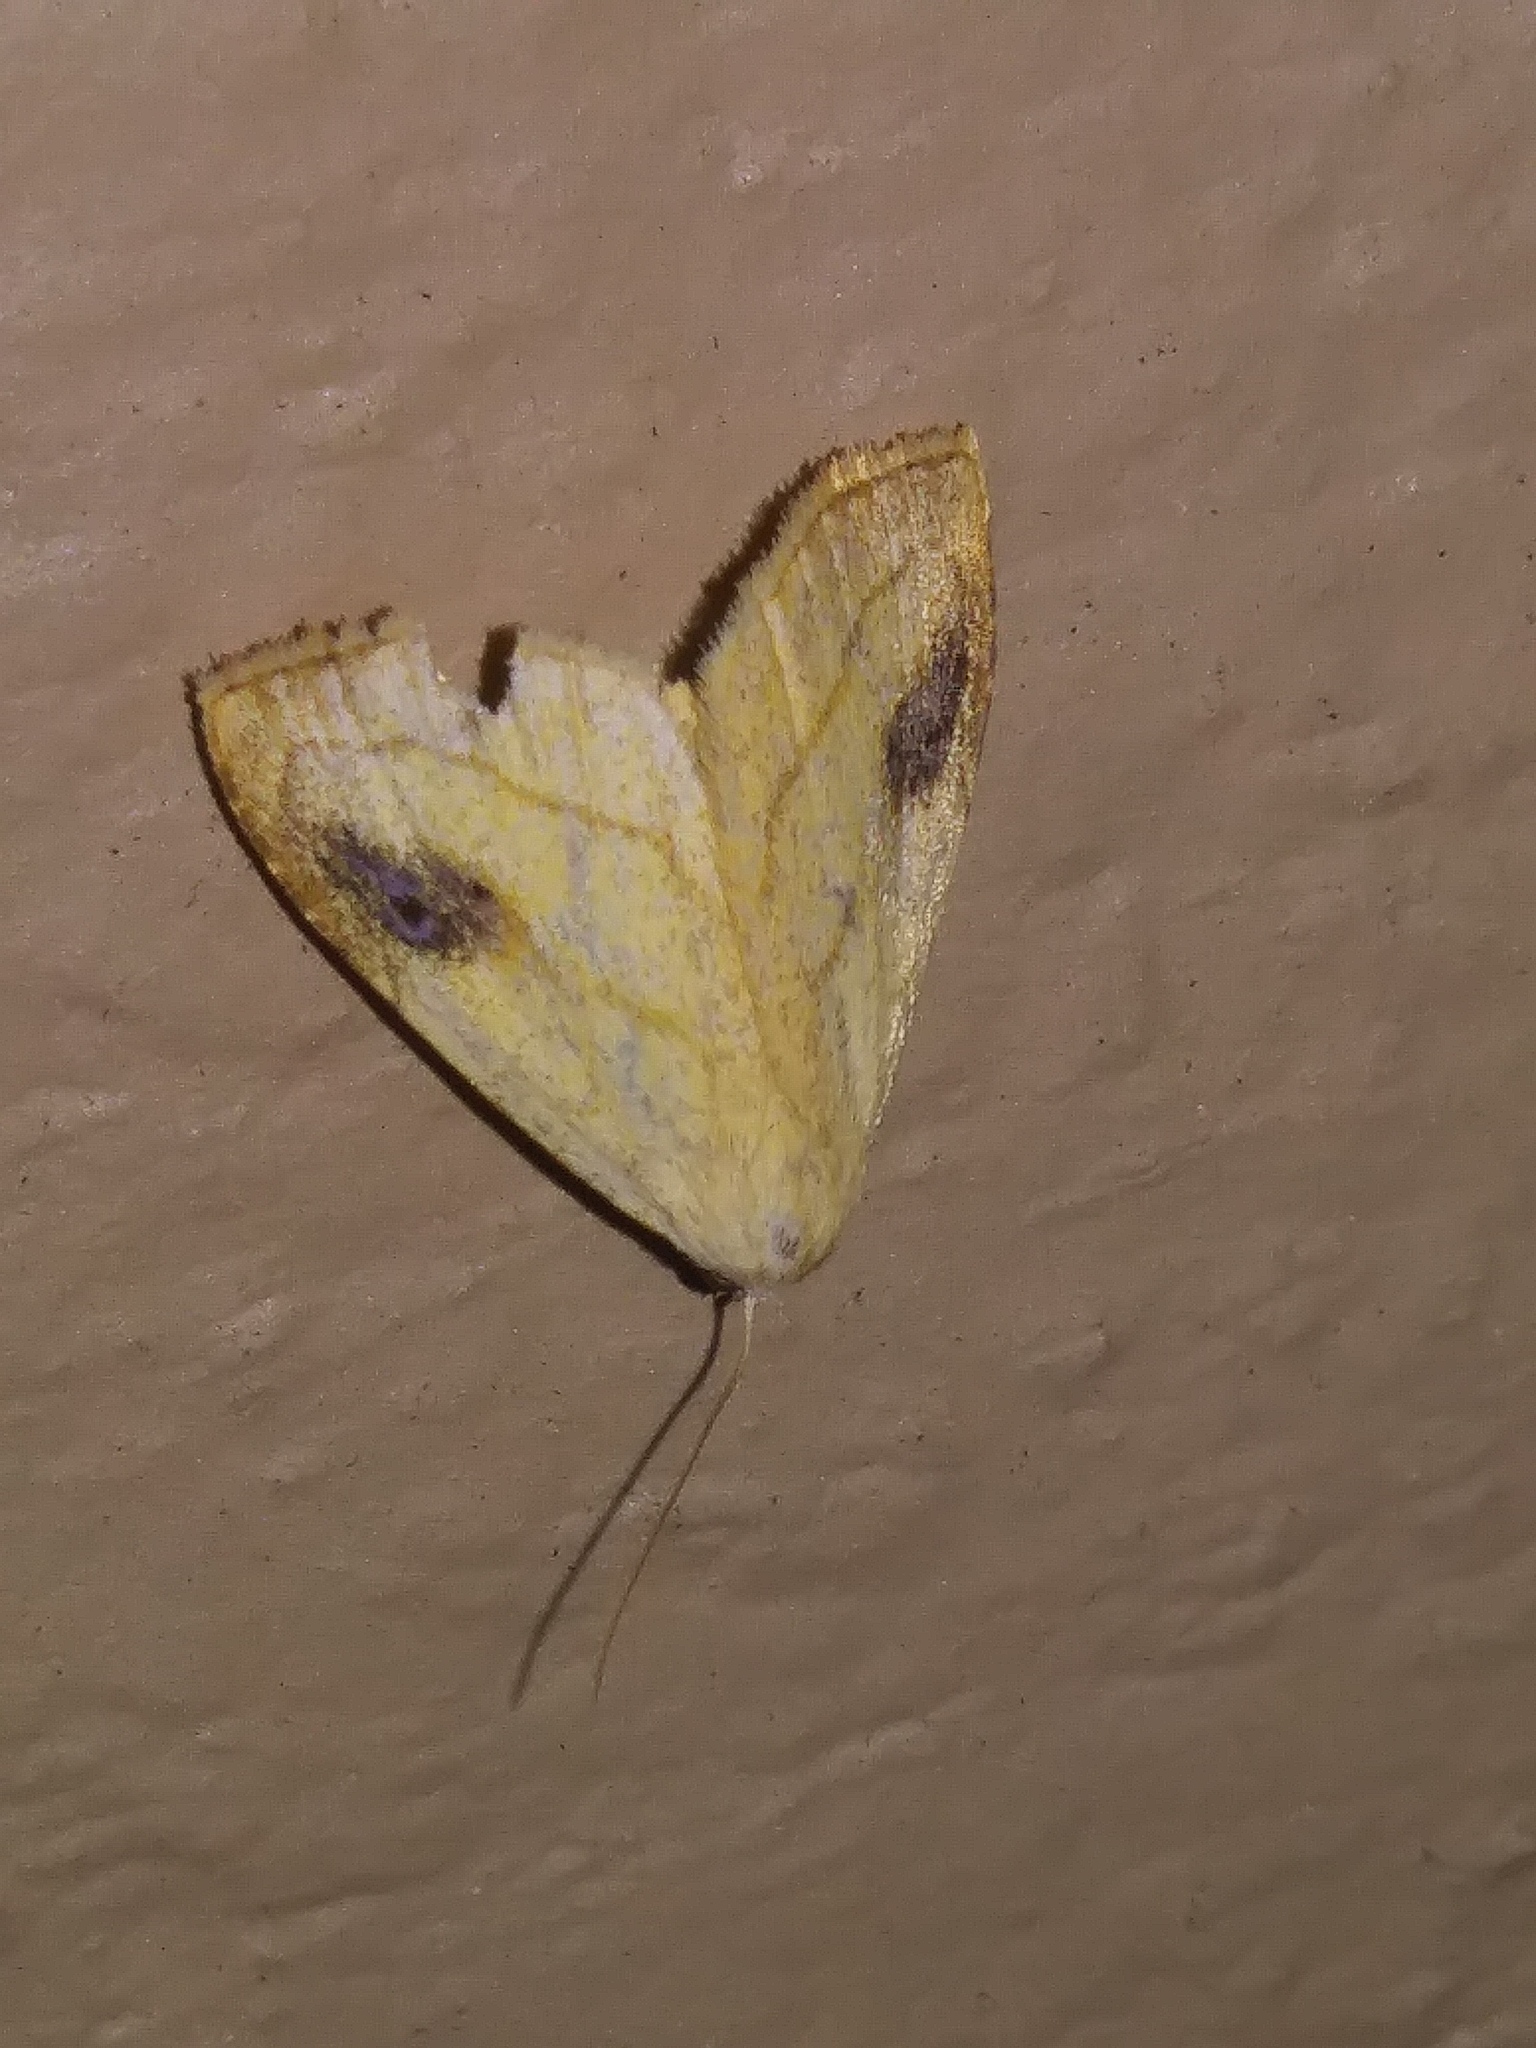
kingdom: Animalia
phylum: Arthropoda
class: Insecta
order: Lepidoptera
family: Erebidae
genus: Rivula
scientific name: Rivula propinqualis
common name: Spotted grass moth
